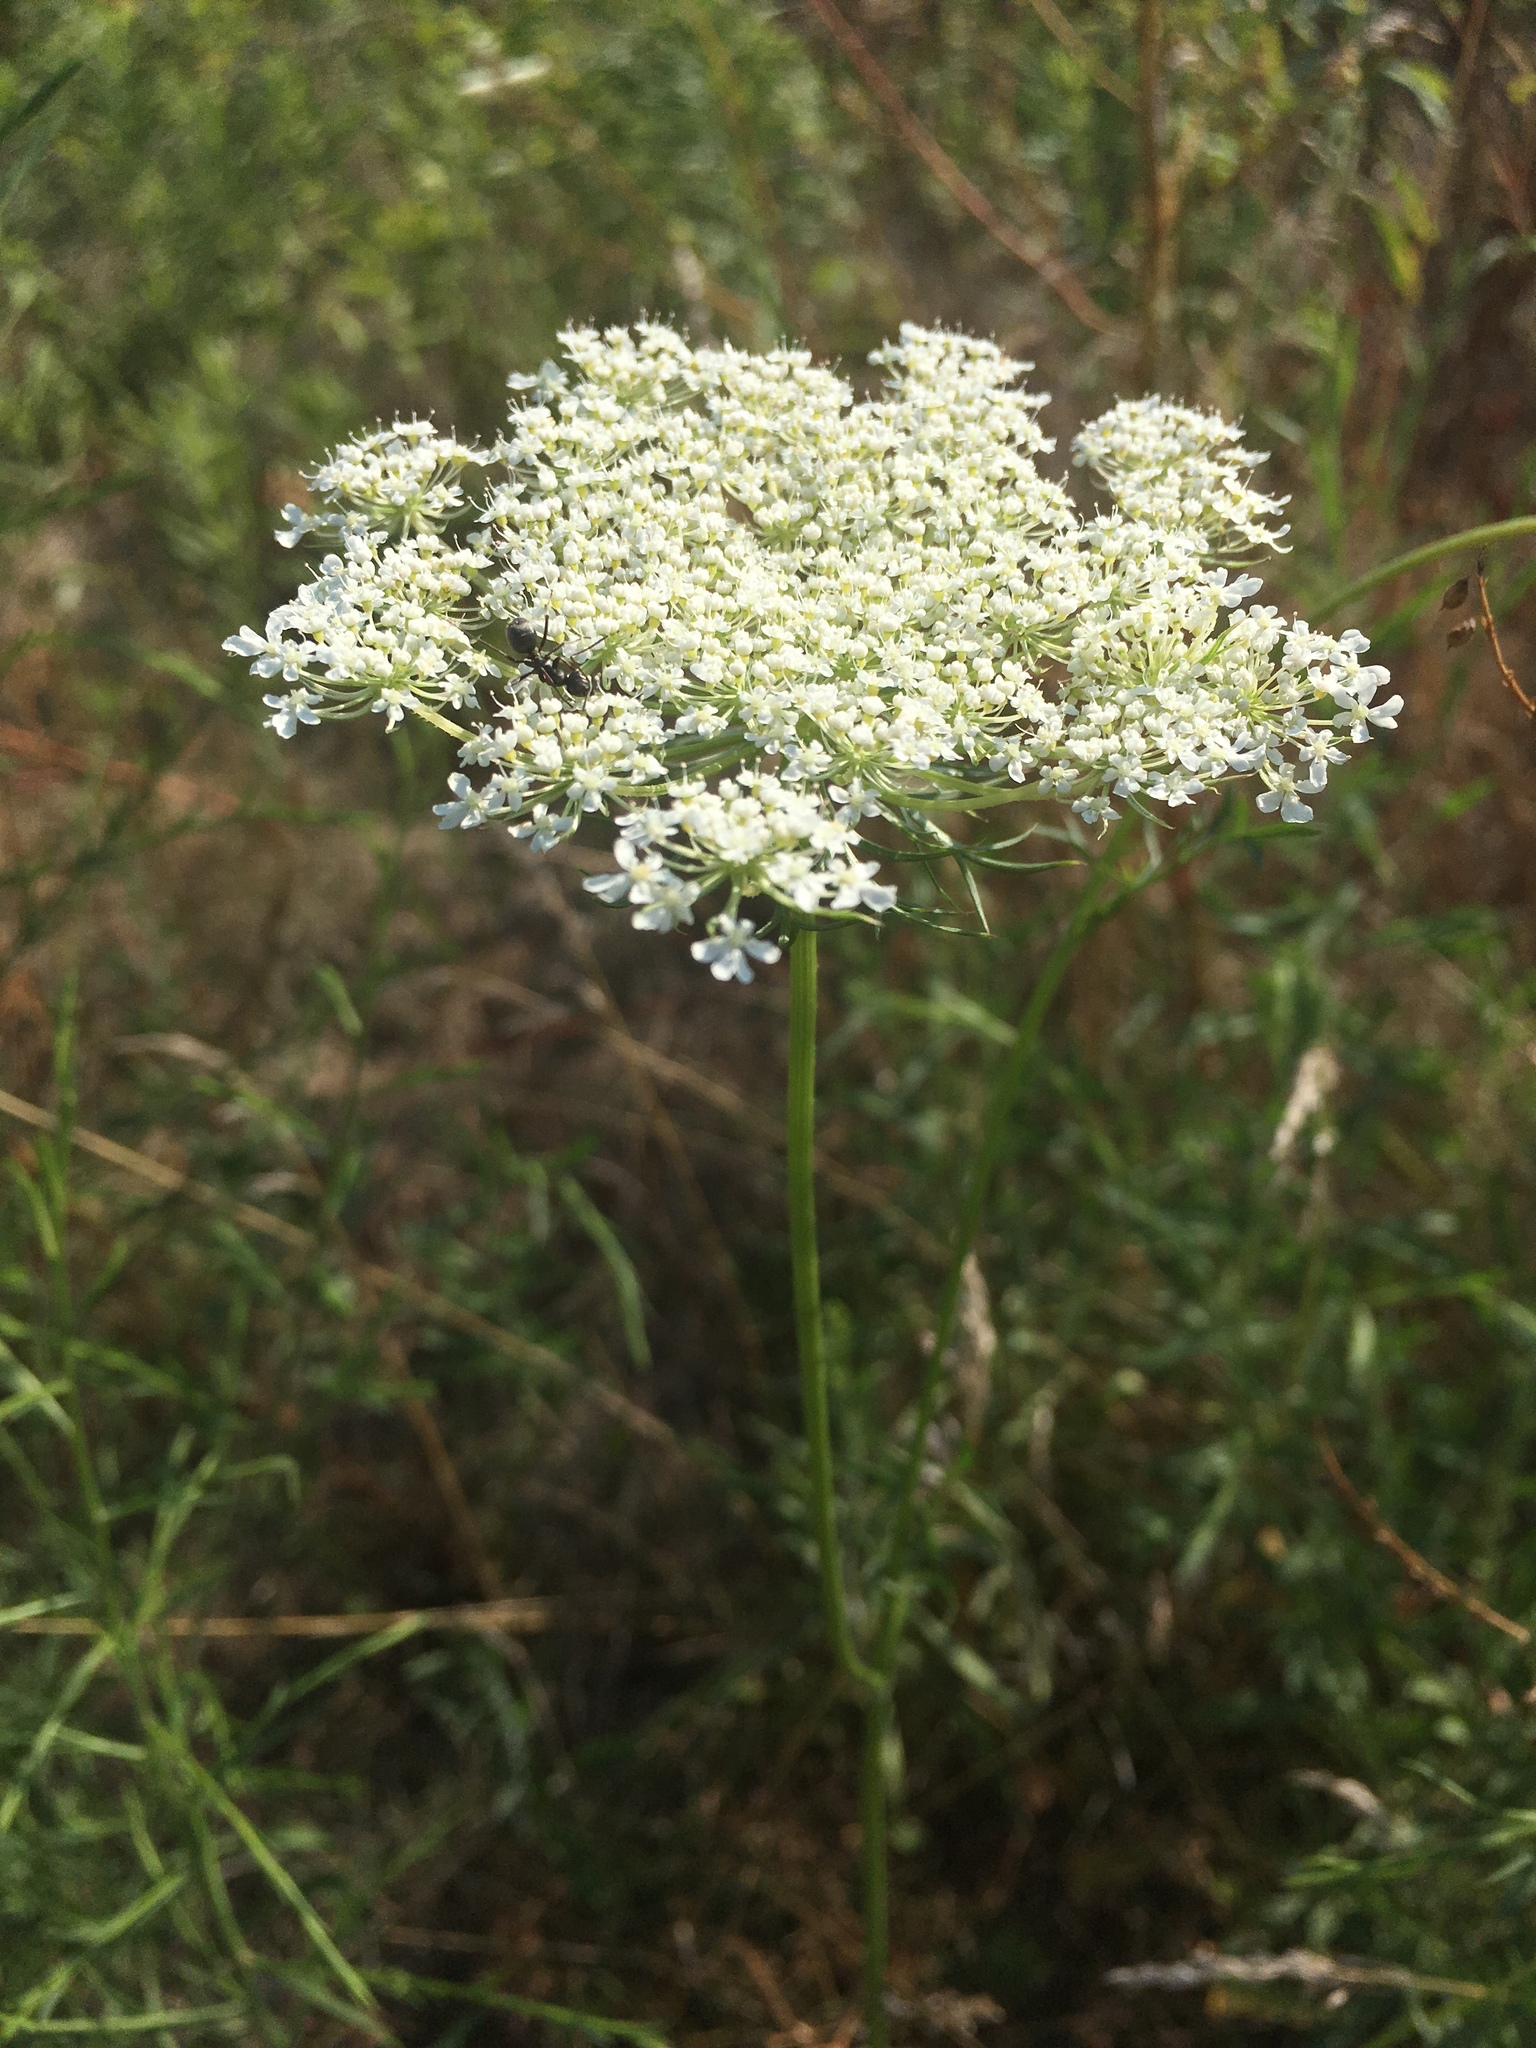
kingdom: Plantae
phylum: Tracheophyta
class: Magnoliopsida
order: Apiales
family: Apiaceae
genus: Daucus
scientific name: Daucus carota
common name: Wild carrot
